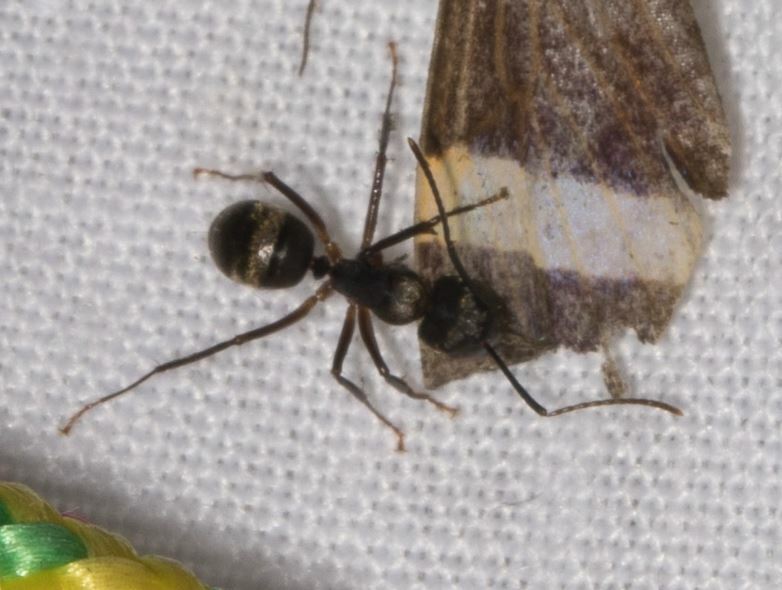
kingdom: Animalia
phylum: Arthropoda
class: Insecta
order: Hymenoptera
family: Formicidae
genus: Camponotus
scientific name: Camponotus femoratus
